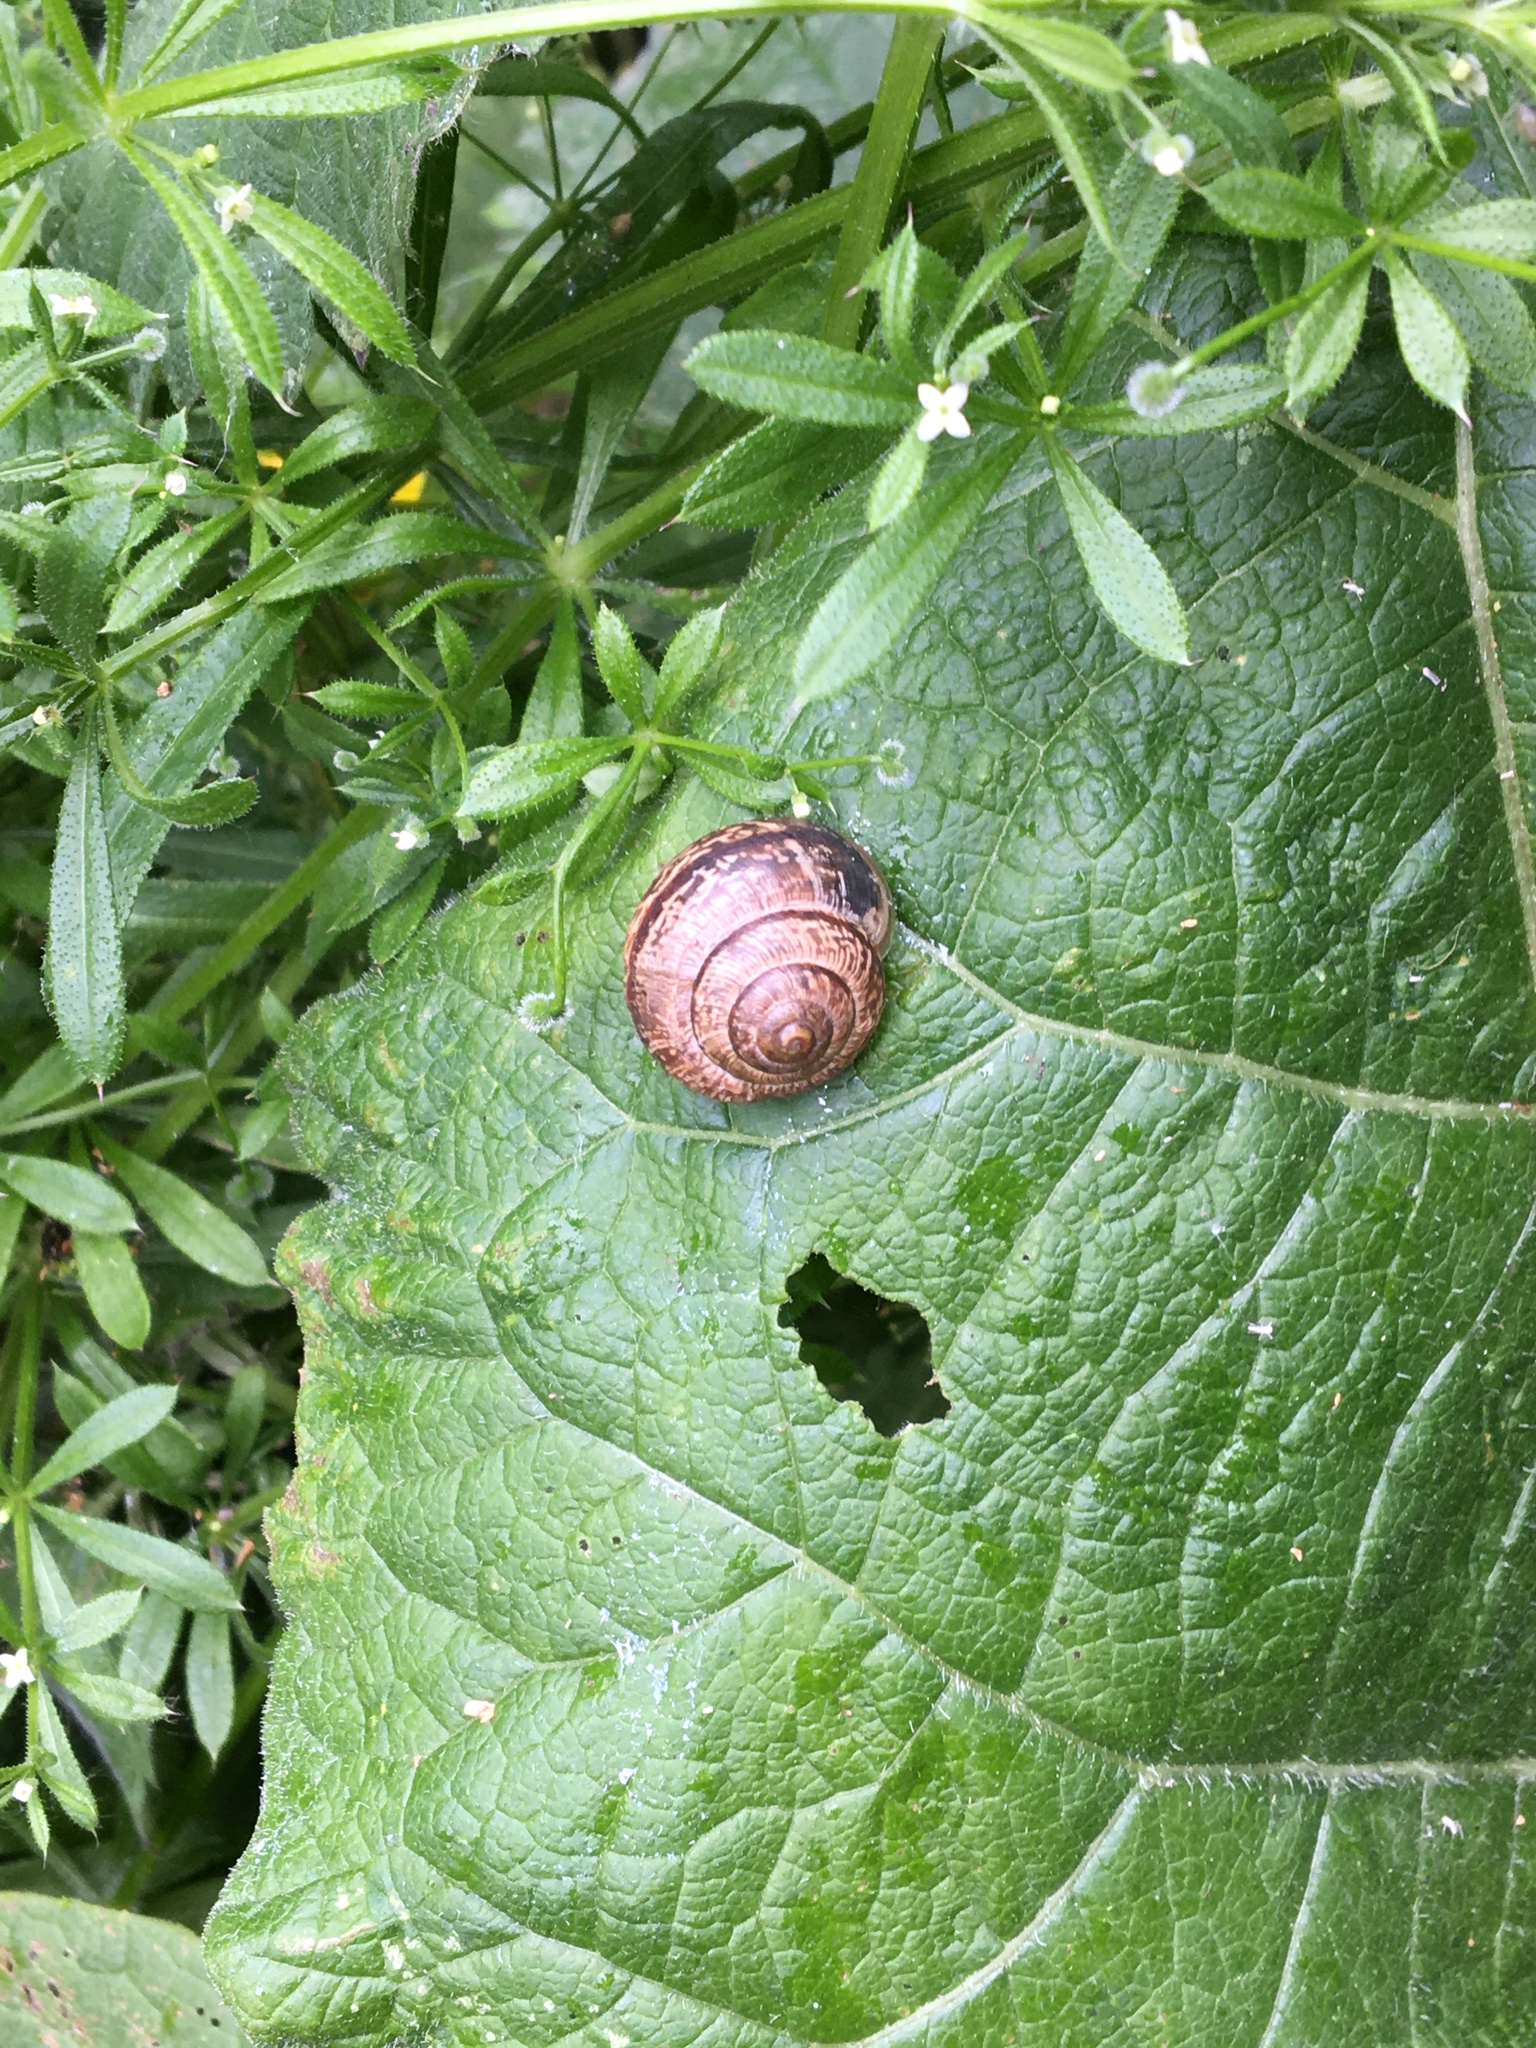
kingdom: Animalia
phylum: Mollusca
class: Gastropoda
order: Stylommatophora
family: Helicidae
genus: Arianta
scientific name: Arianta arbustorum
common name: Copse snail
